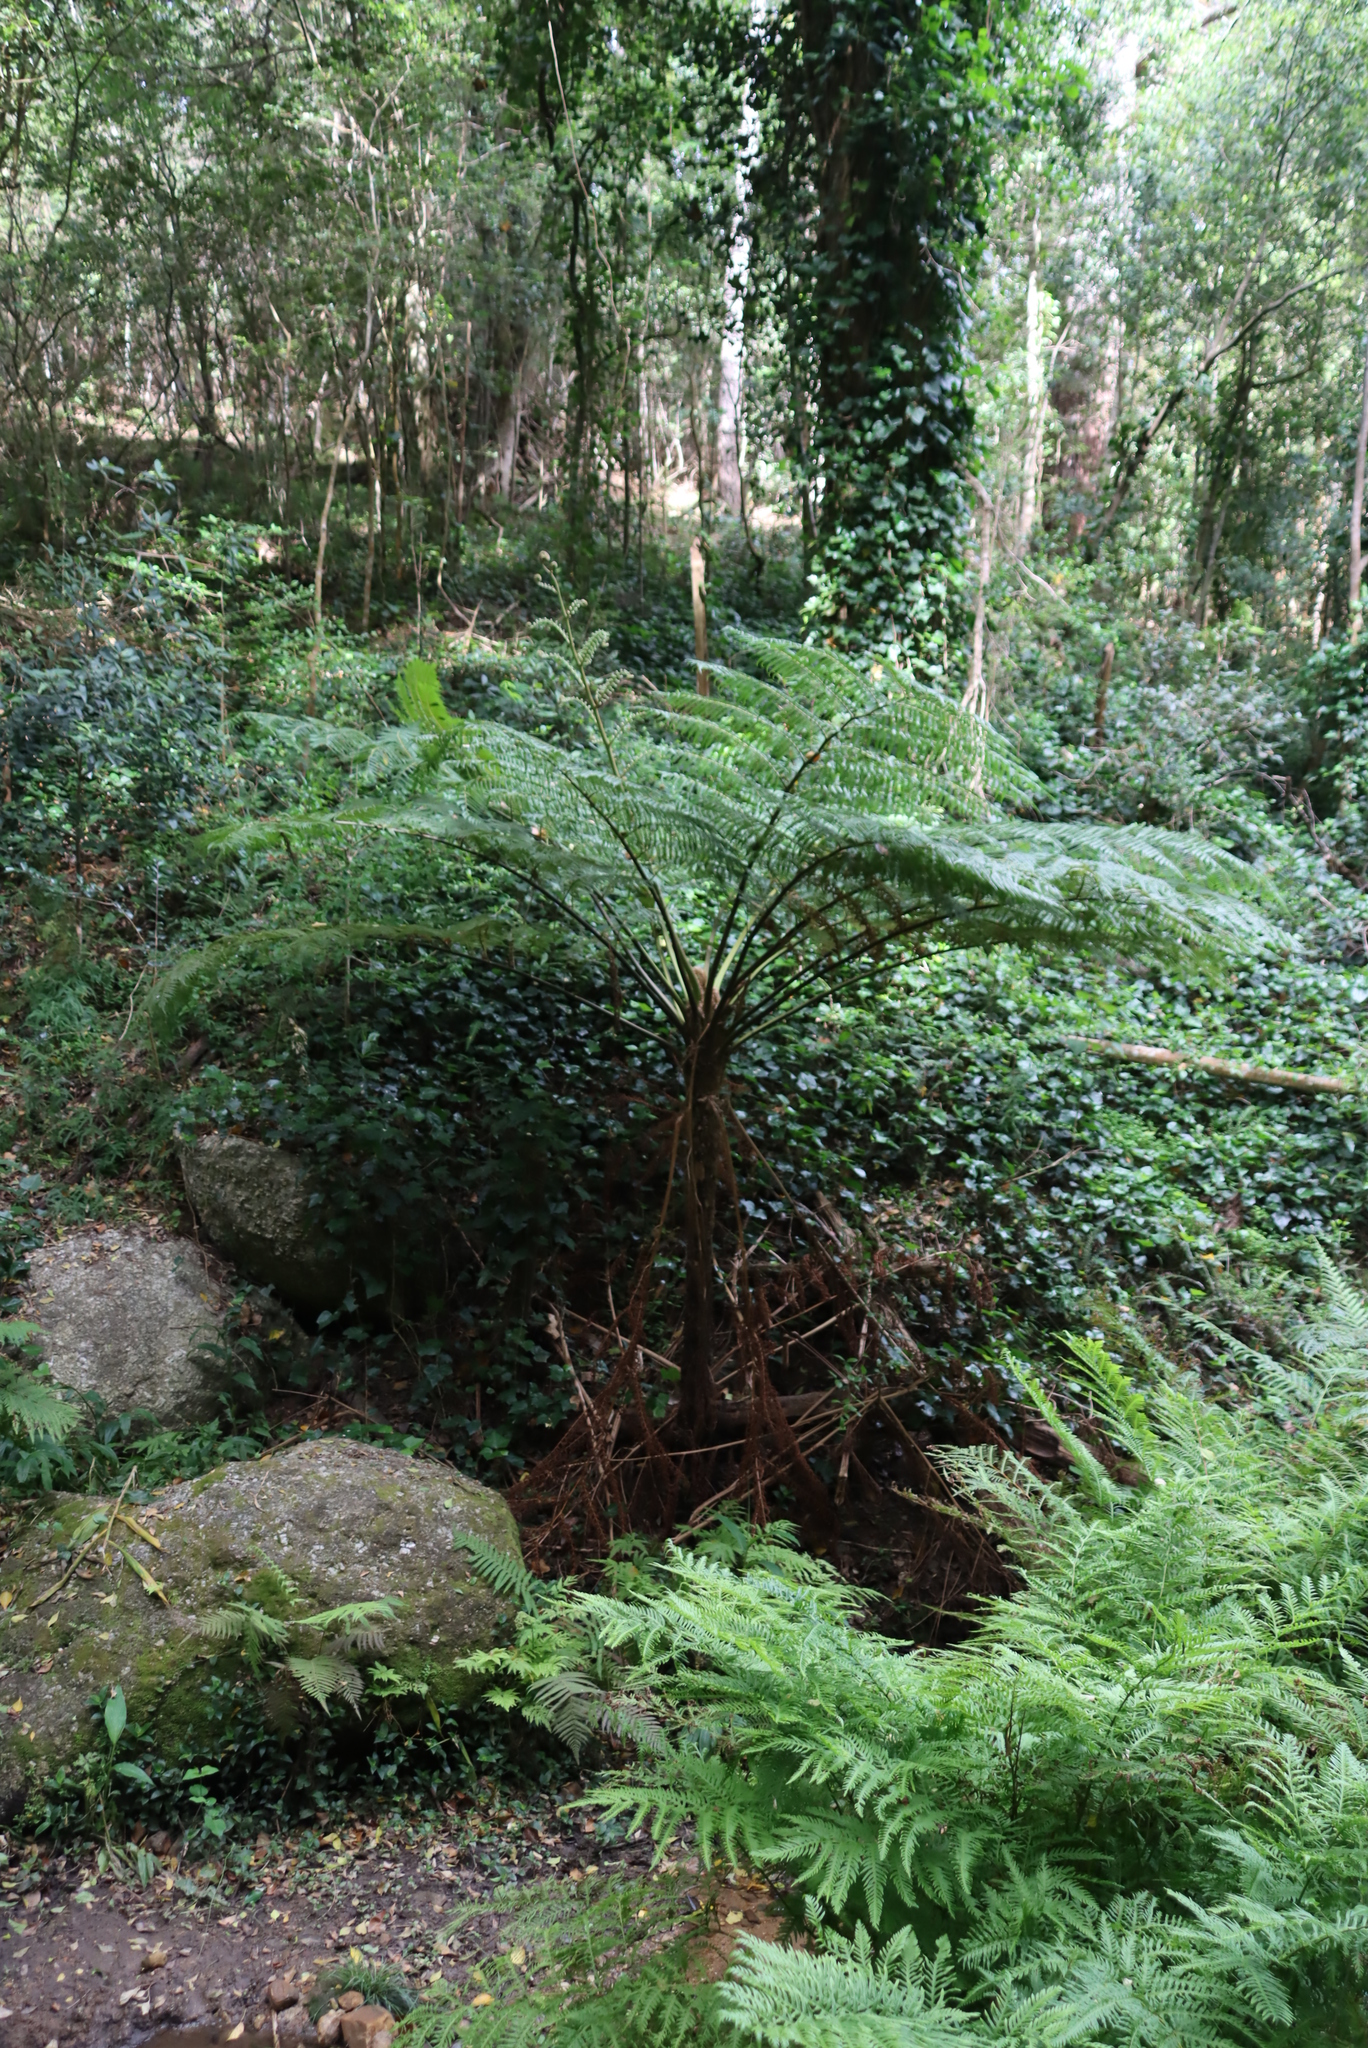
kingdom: Plantae
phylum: Tracheophyta
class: Polypodiopsida
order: Cyatheales
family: Cyatheaceae
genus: Sphaeropteris
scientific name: Sphaeropteris cooperi
